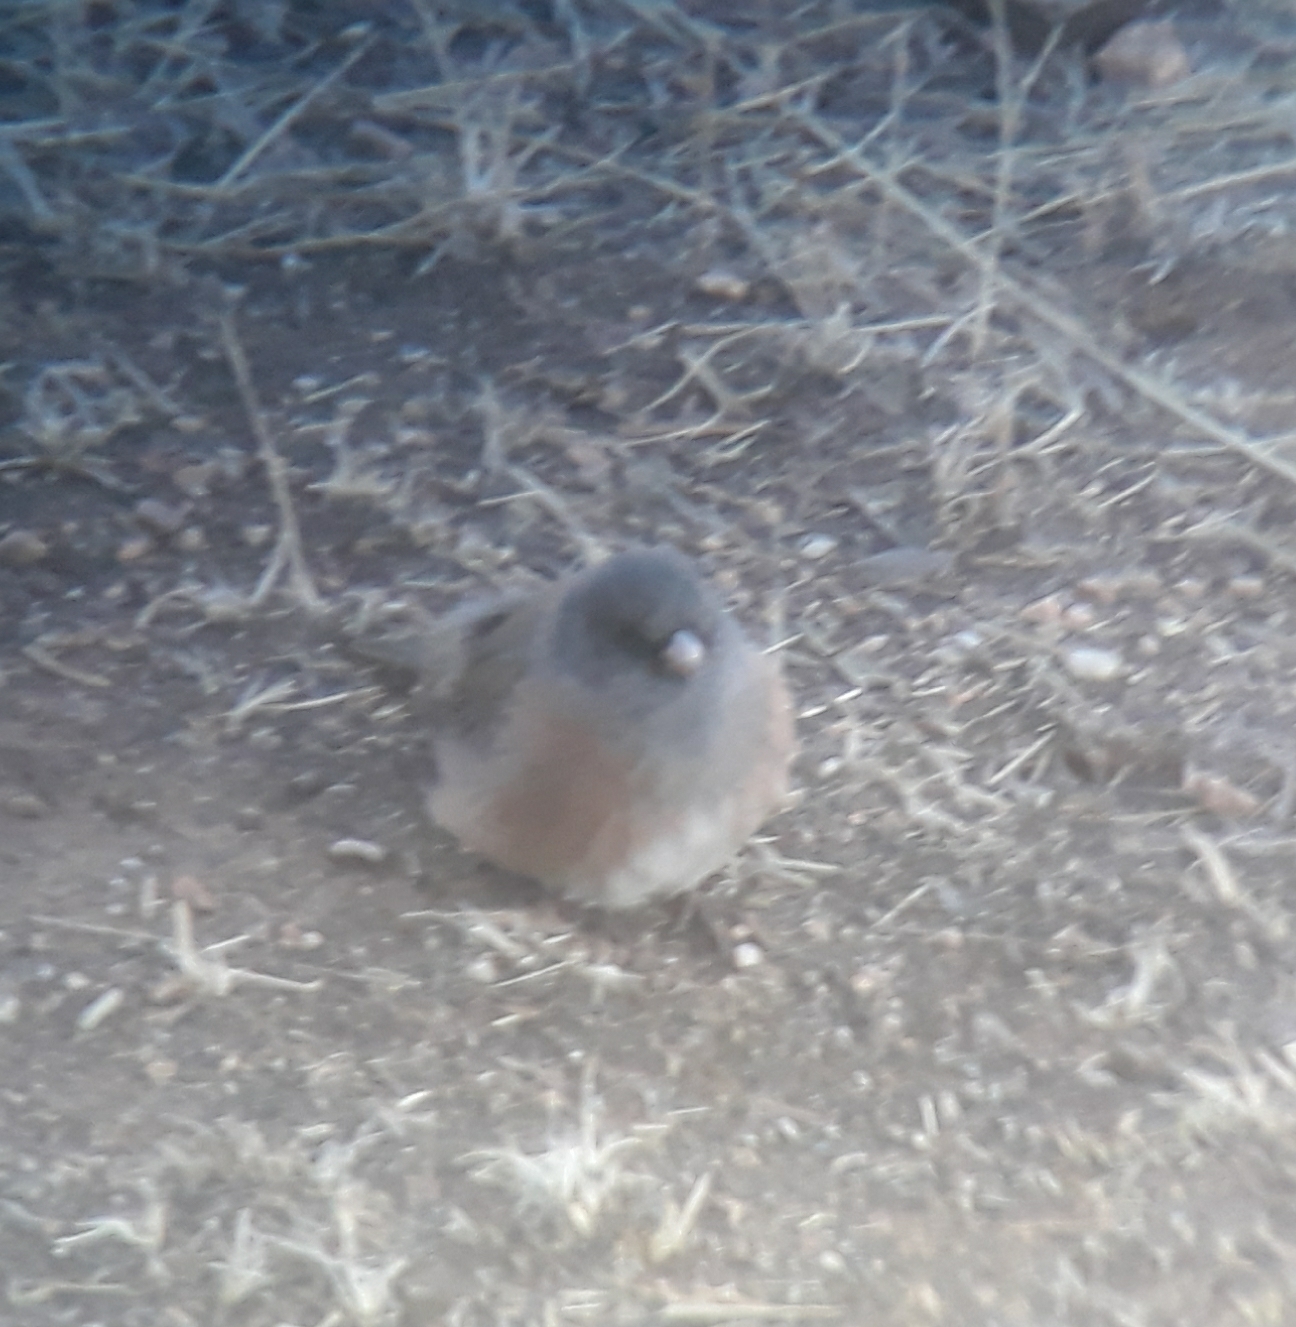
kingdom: Animalia
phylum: Chordata
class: Aves
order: Passeriformes
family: Passerellidae
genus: Junco
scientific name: Junco hyemalis
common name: Dark-eyed junco
